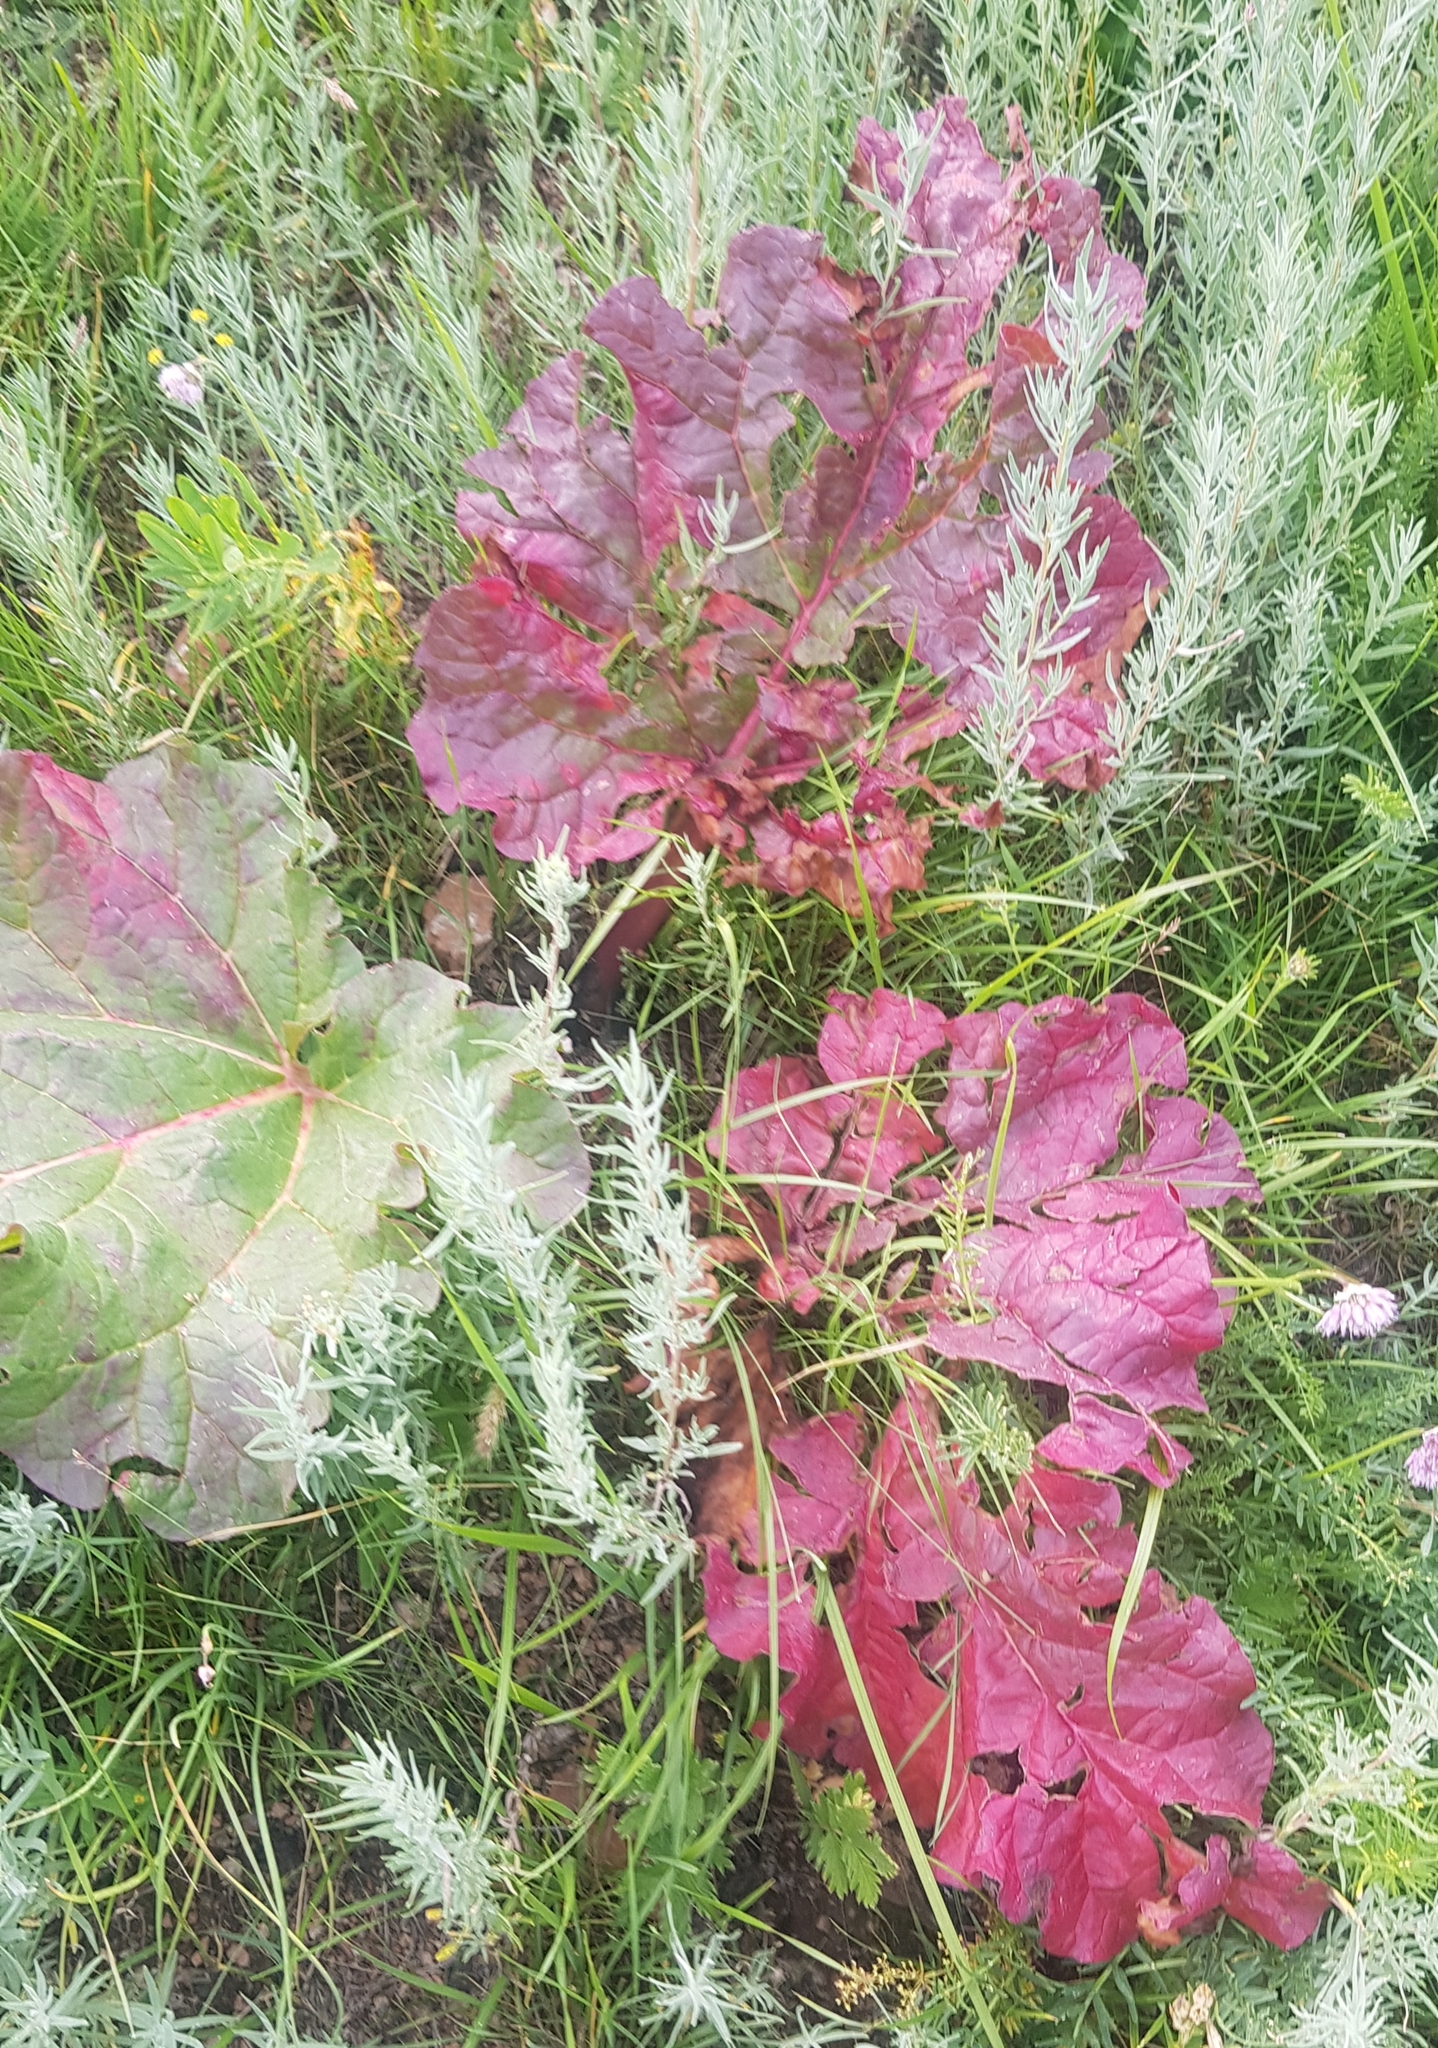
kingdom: Plantae
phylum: Tracheophyta
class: Magnoliopsida
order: Caryophyllales
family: Polygonaceae
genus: Rheum
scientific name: Rheum rhabarbarum
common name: Garden rhubarb
